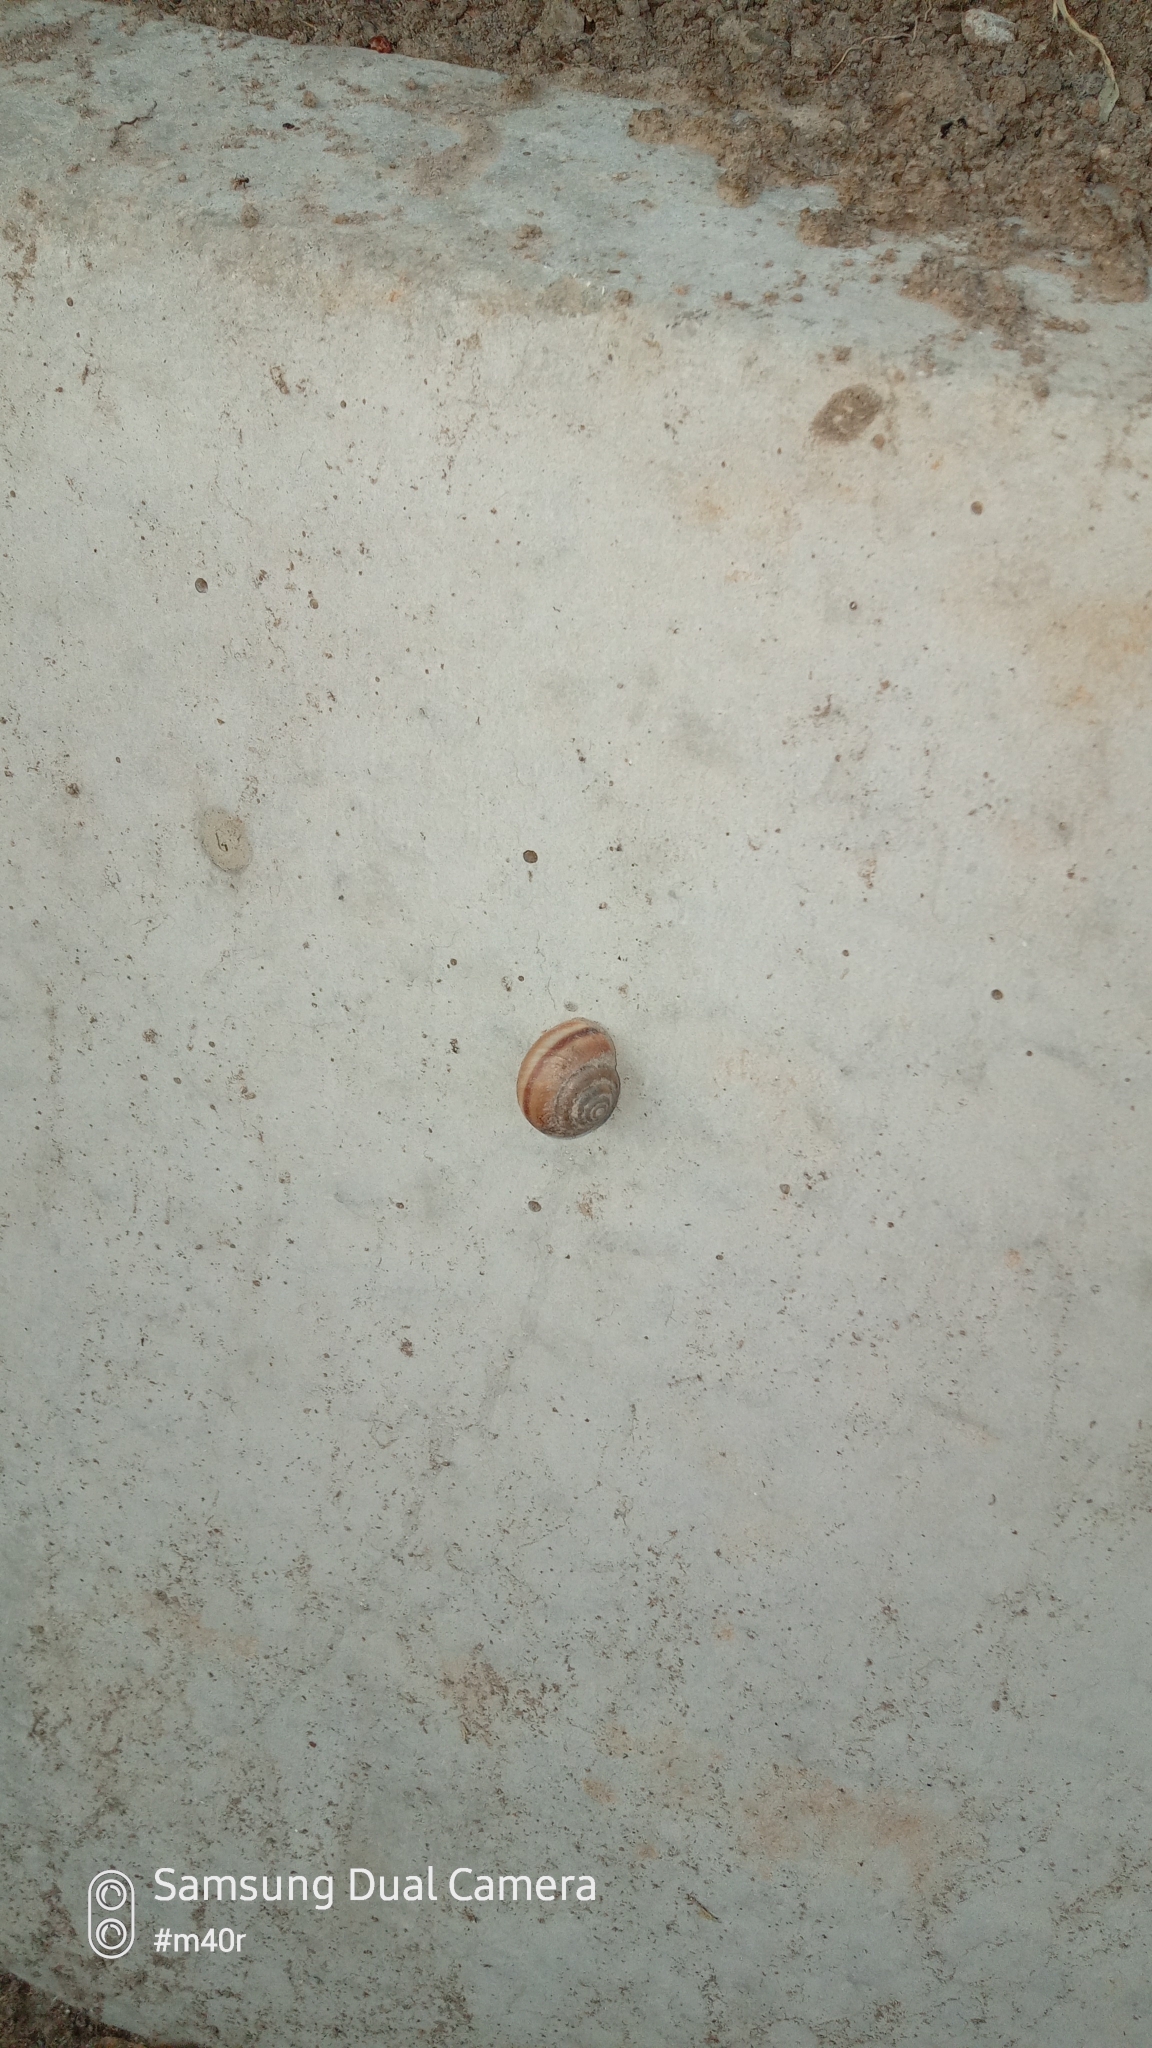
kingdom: Animalia
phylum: Mollusca
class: Gastropoda
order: Stylommatophora
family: Camaenidae
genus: Fruticicola
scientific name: Fruticicola lantzi
